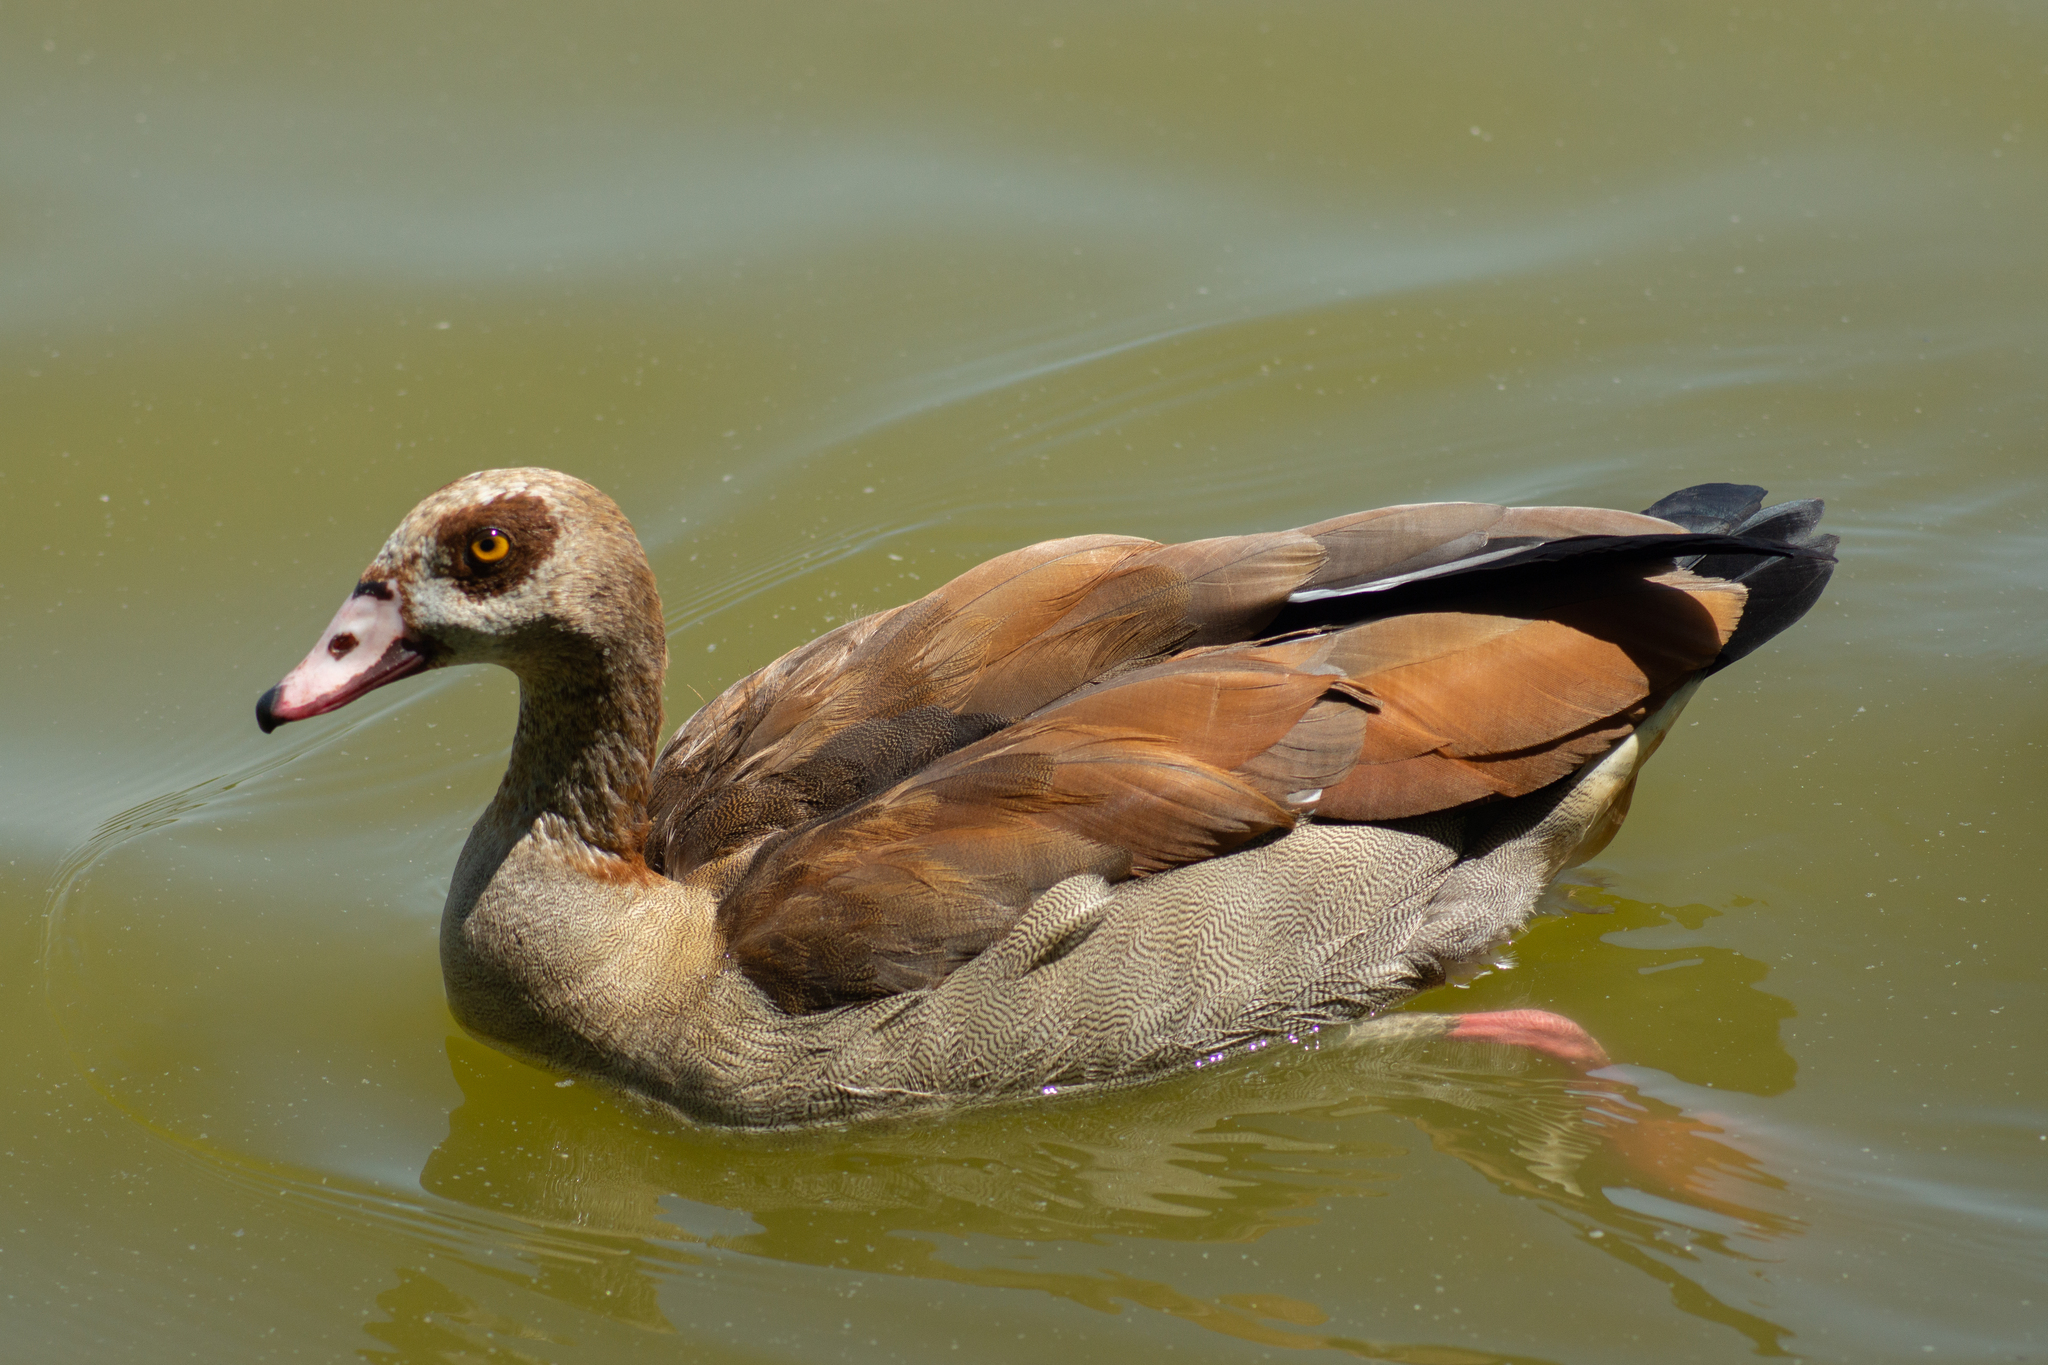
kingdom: Animalia
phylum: Chordata
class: Aves
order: Anseriformes
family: Anatidae
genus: Alopochen
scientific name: Alopochen aegyptiaca
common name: Egyptian goose
